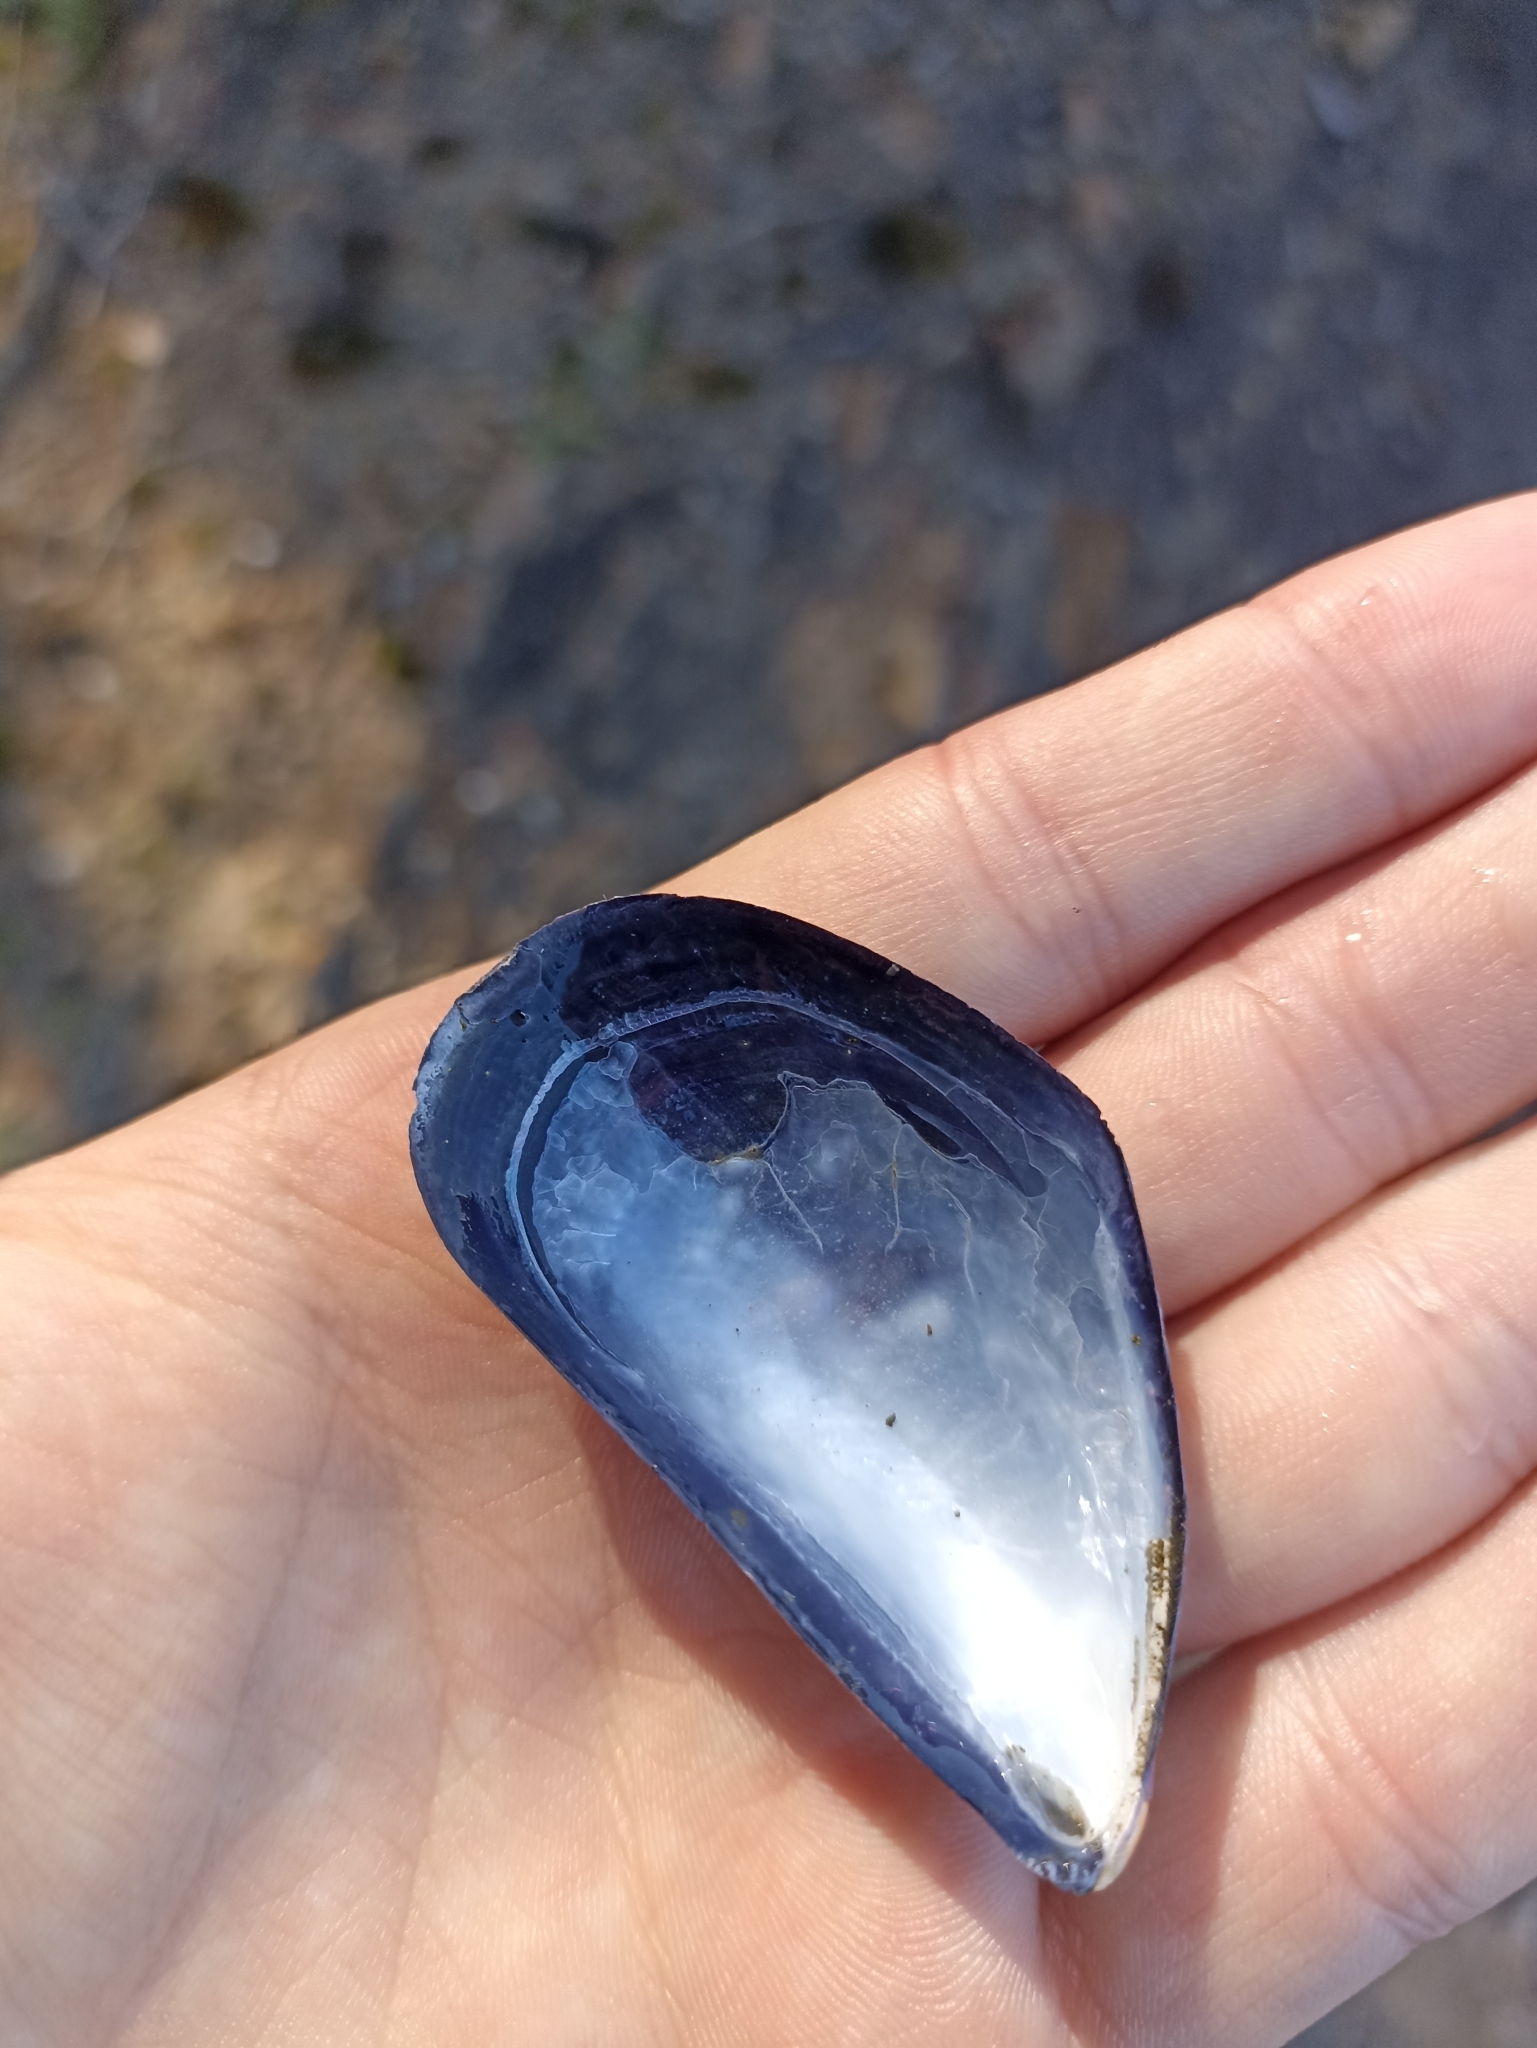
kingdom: Animalia
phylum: Mollusca
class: Bivalvia
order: Mytilida
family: Mytilidae
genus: Mytilus
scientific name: Mytilus edulis
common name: Blue mussel
